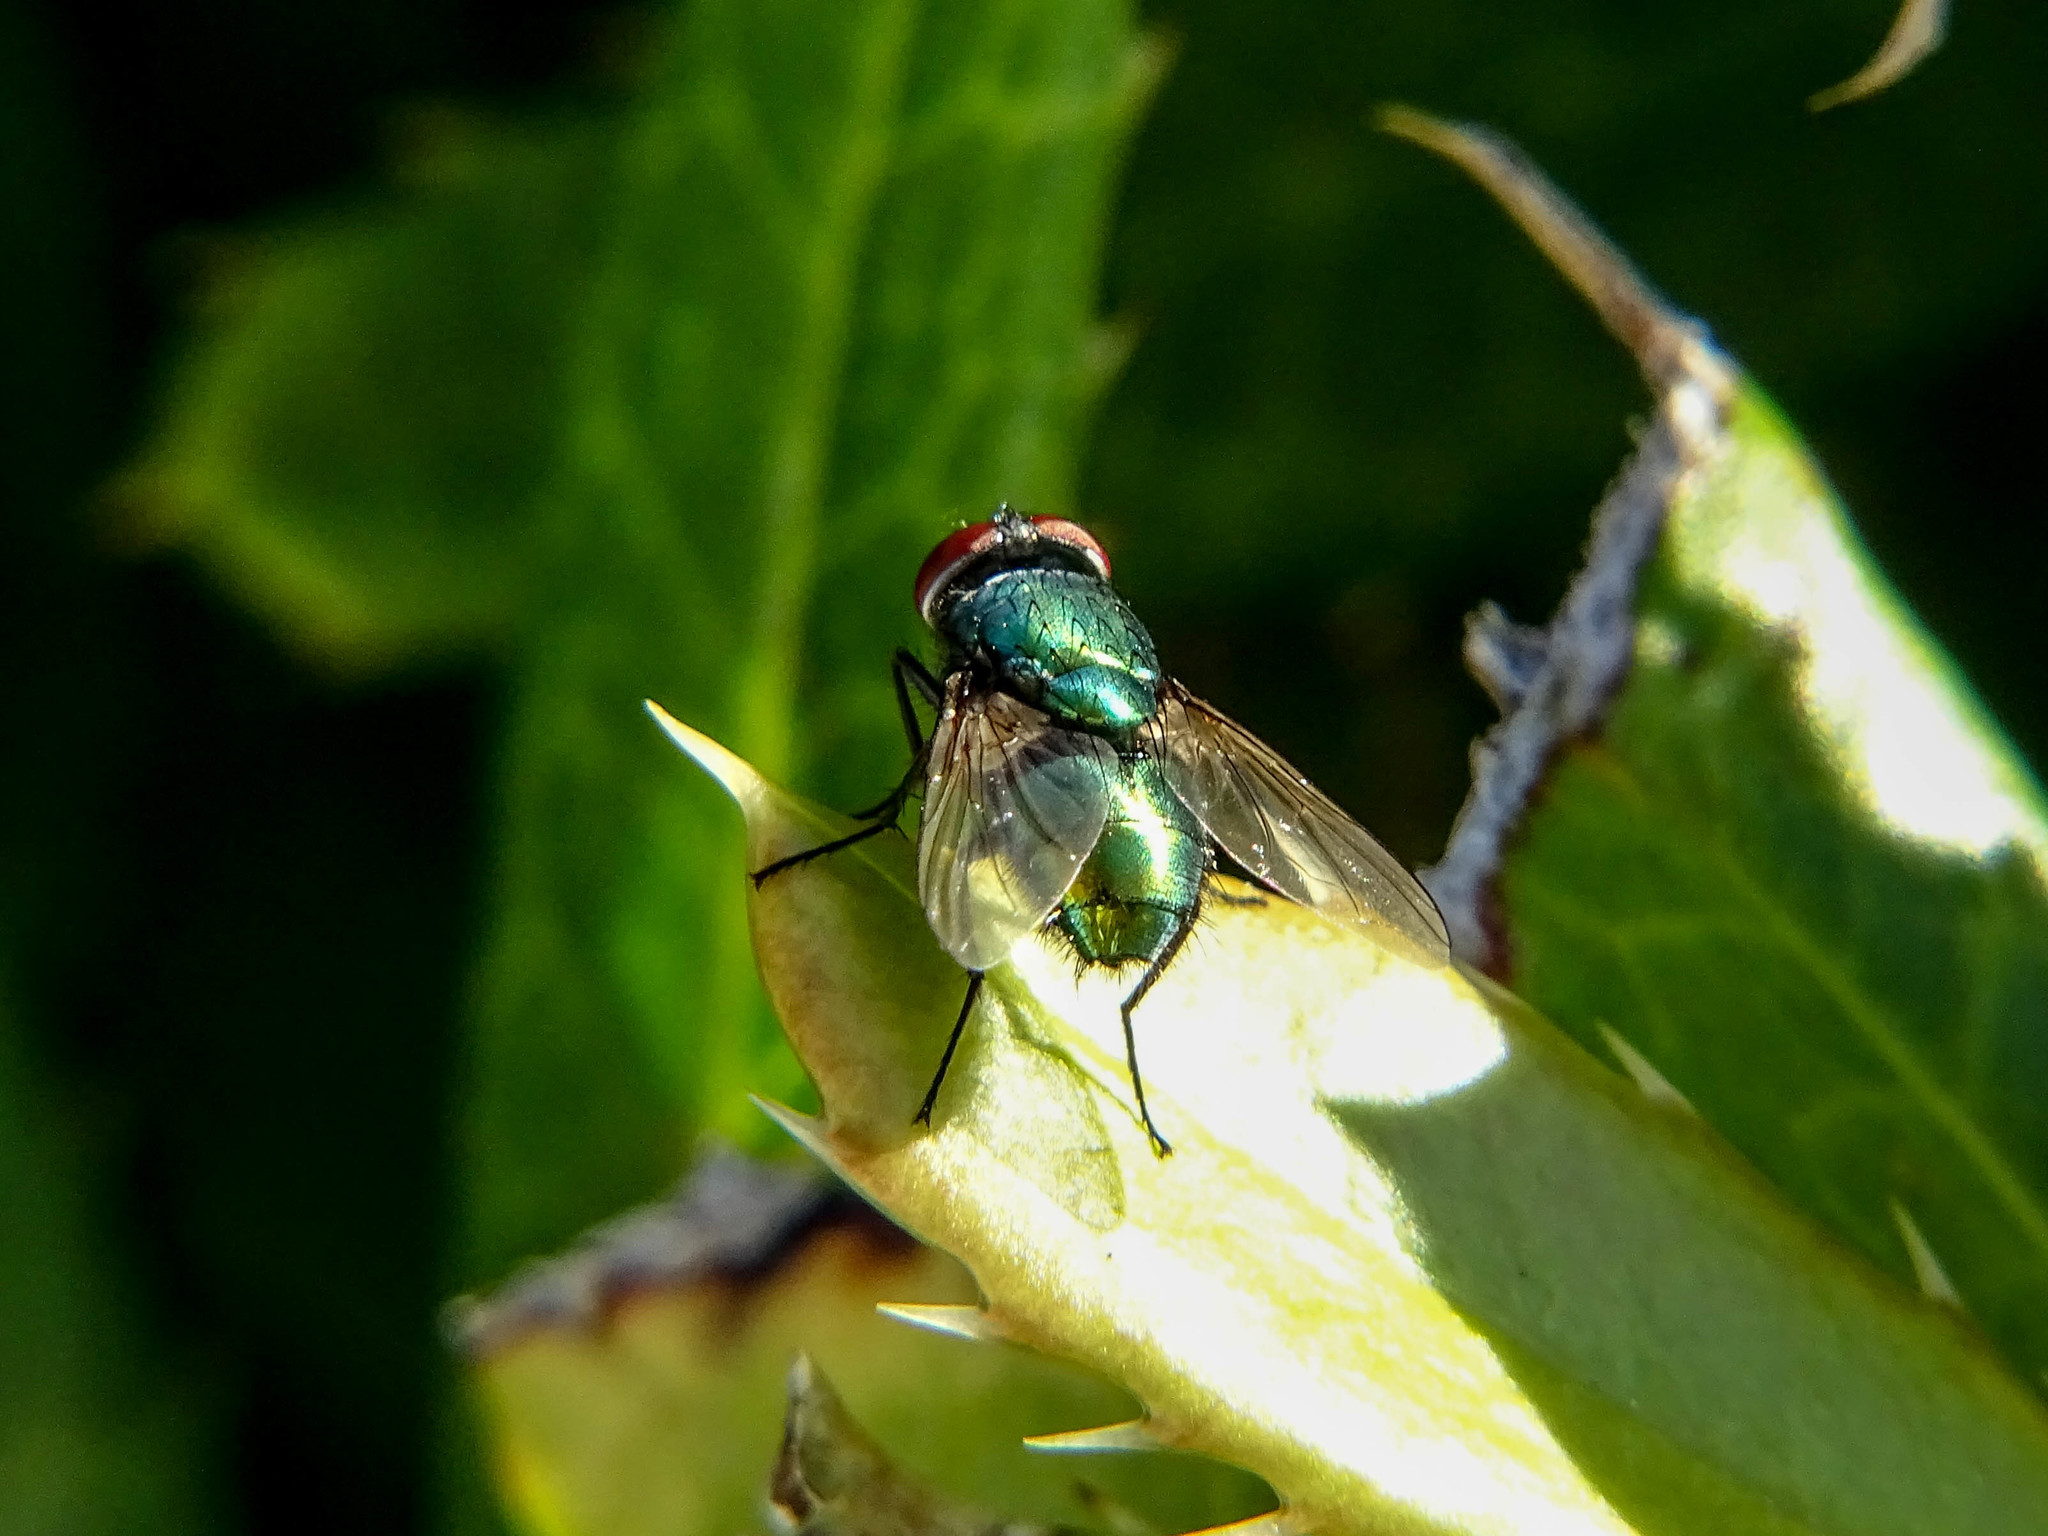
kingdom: Animalia
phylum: Arthropoda
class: Insecta
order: Diptera
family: Calliphoridae
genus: Lucilia
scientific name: Lucilia sericata
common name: Blow fly
